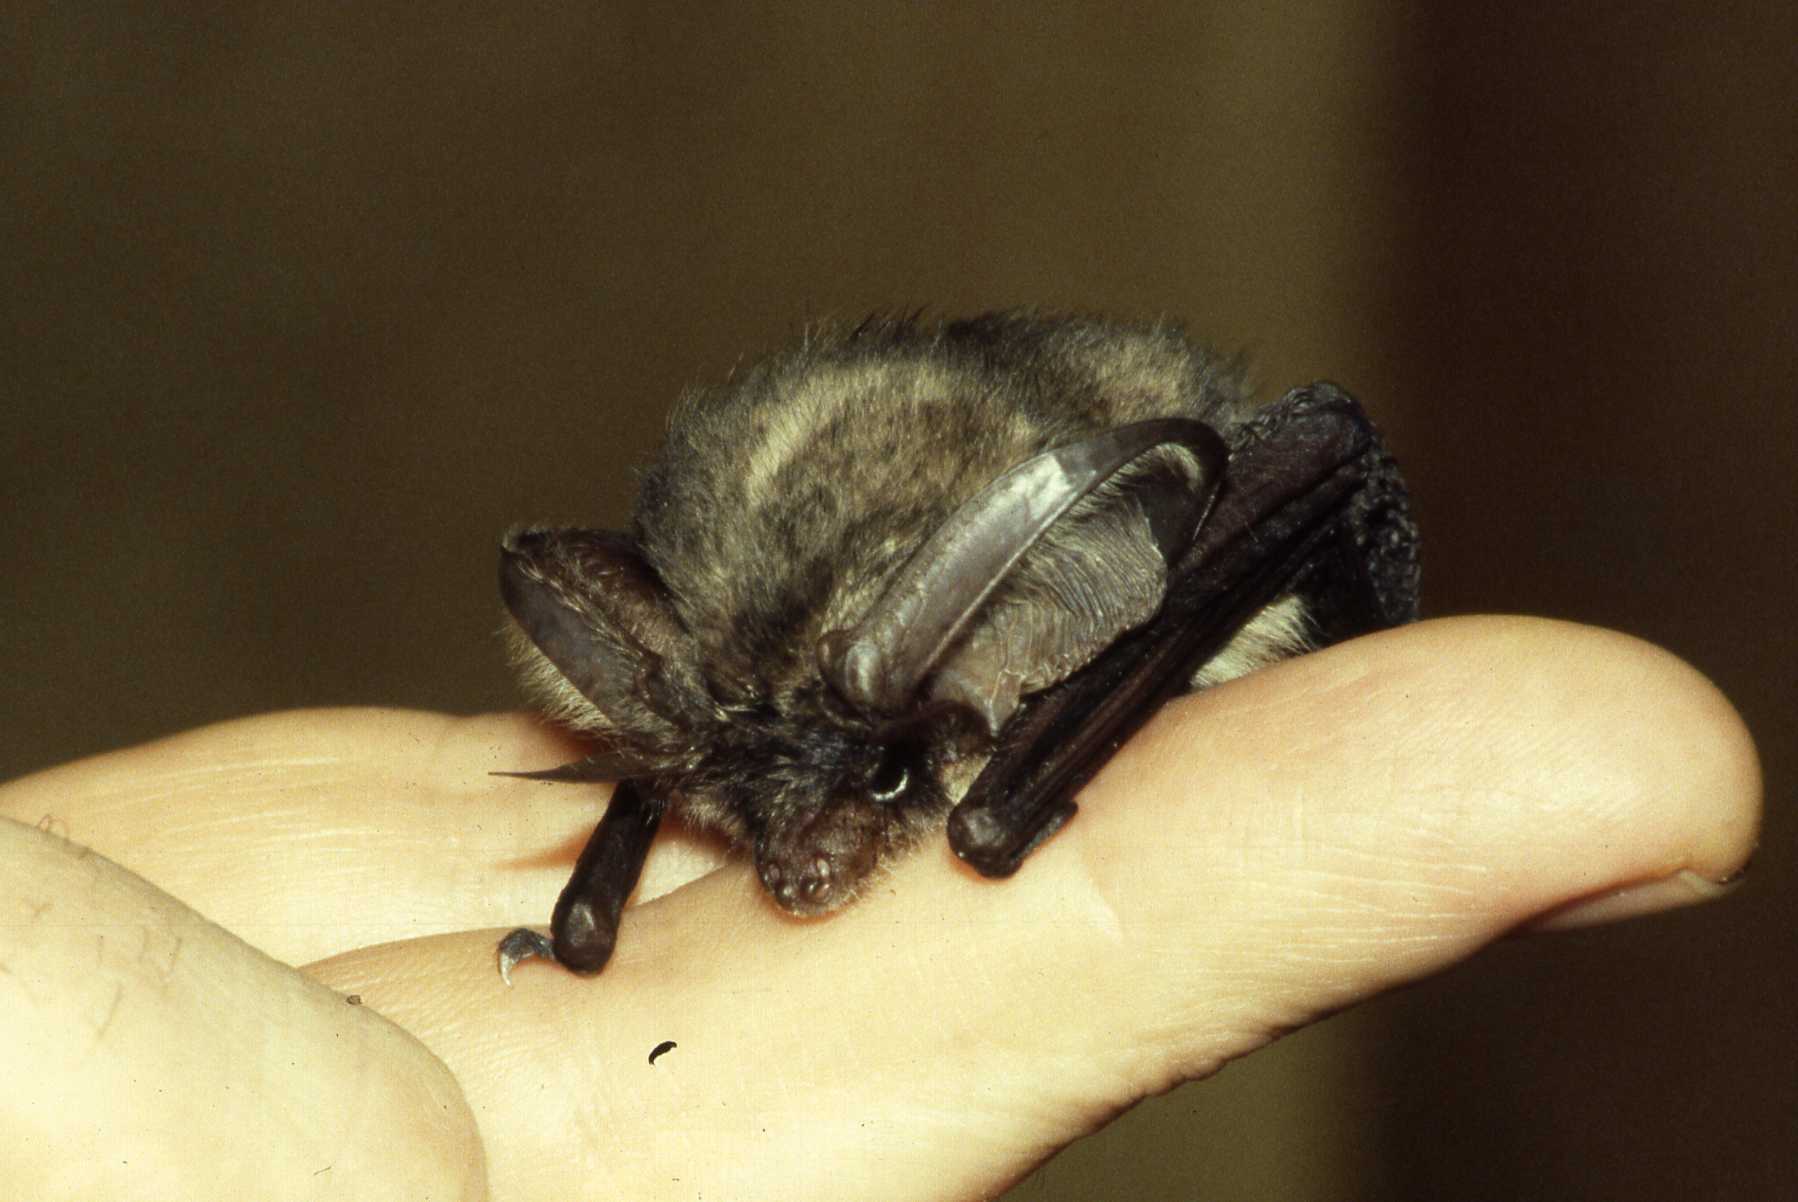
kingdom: Animalia
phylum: Chordata
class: Mammalia
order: Chiroptera
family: Vespertilionidae
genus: Plecotus
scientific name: Plecotus austriacus
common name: Grey long-eared bat
